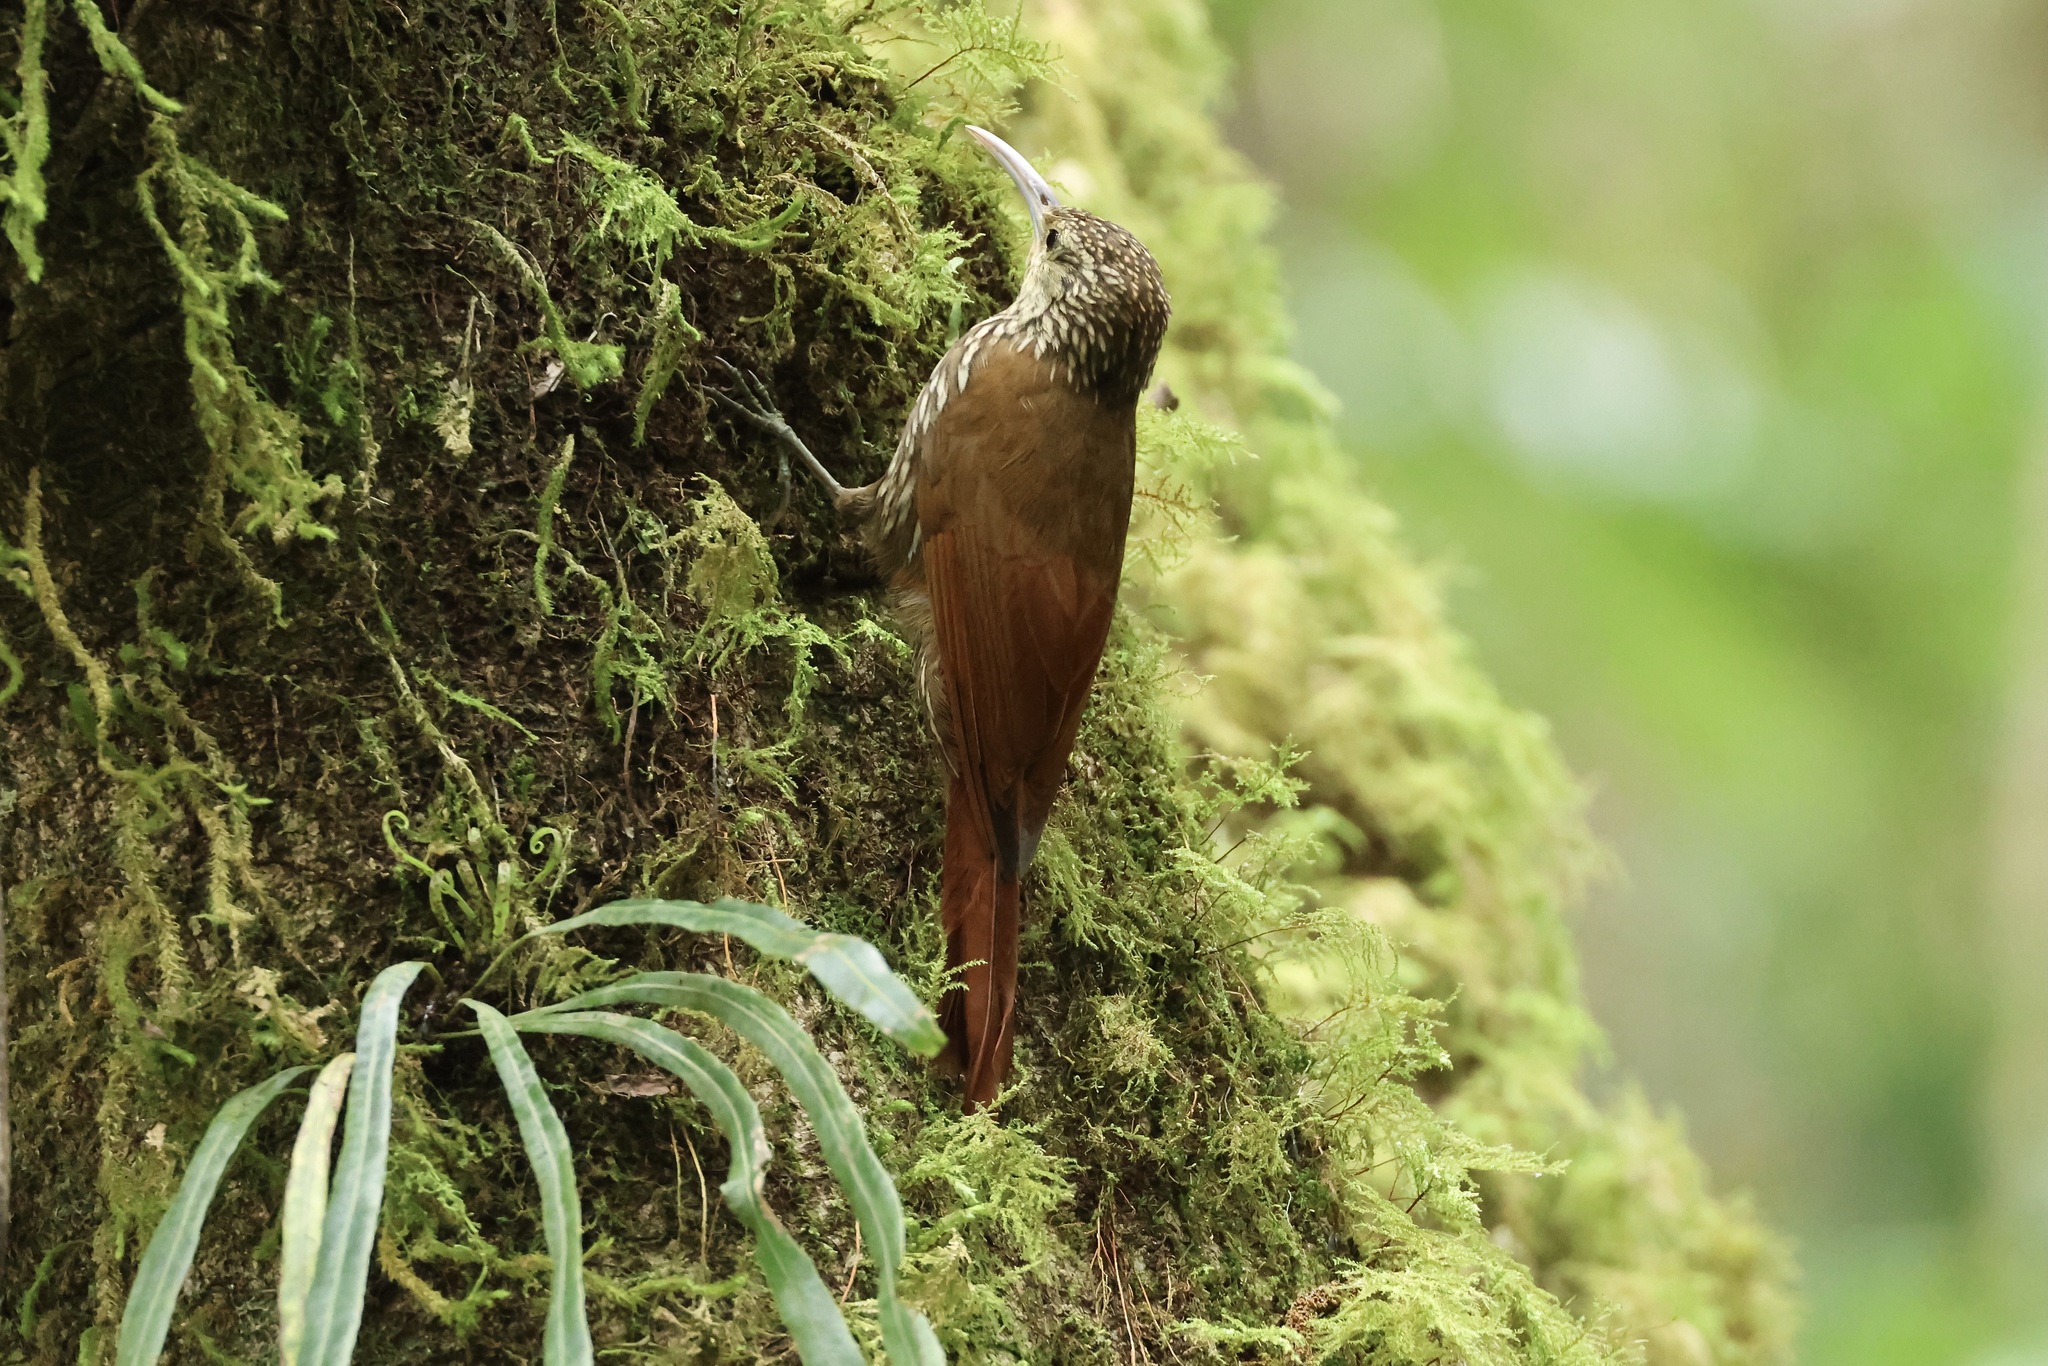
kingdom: Animalia
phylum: Chordata
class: Aves
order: Passeriformes
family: Furnariidae
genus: Lepidocolaptes
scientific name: Lepidocolaptes affinis
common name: Spot-crowned woodcreeper
